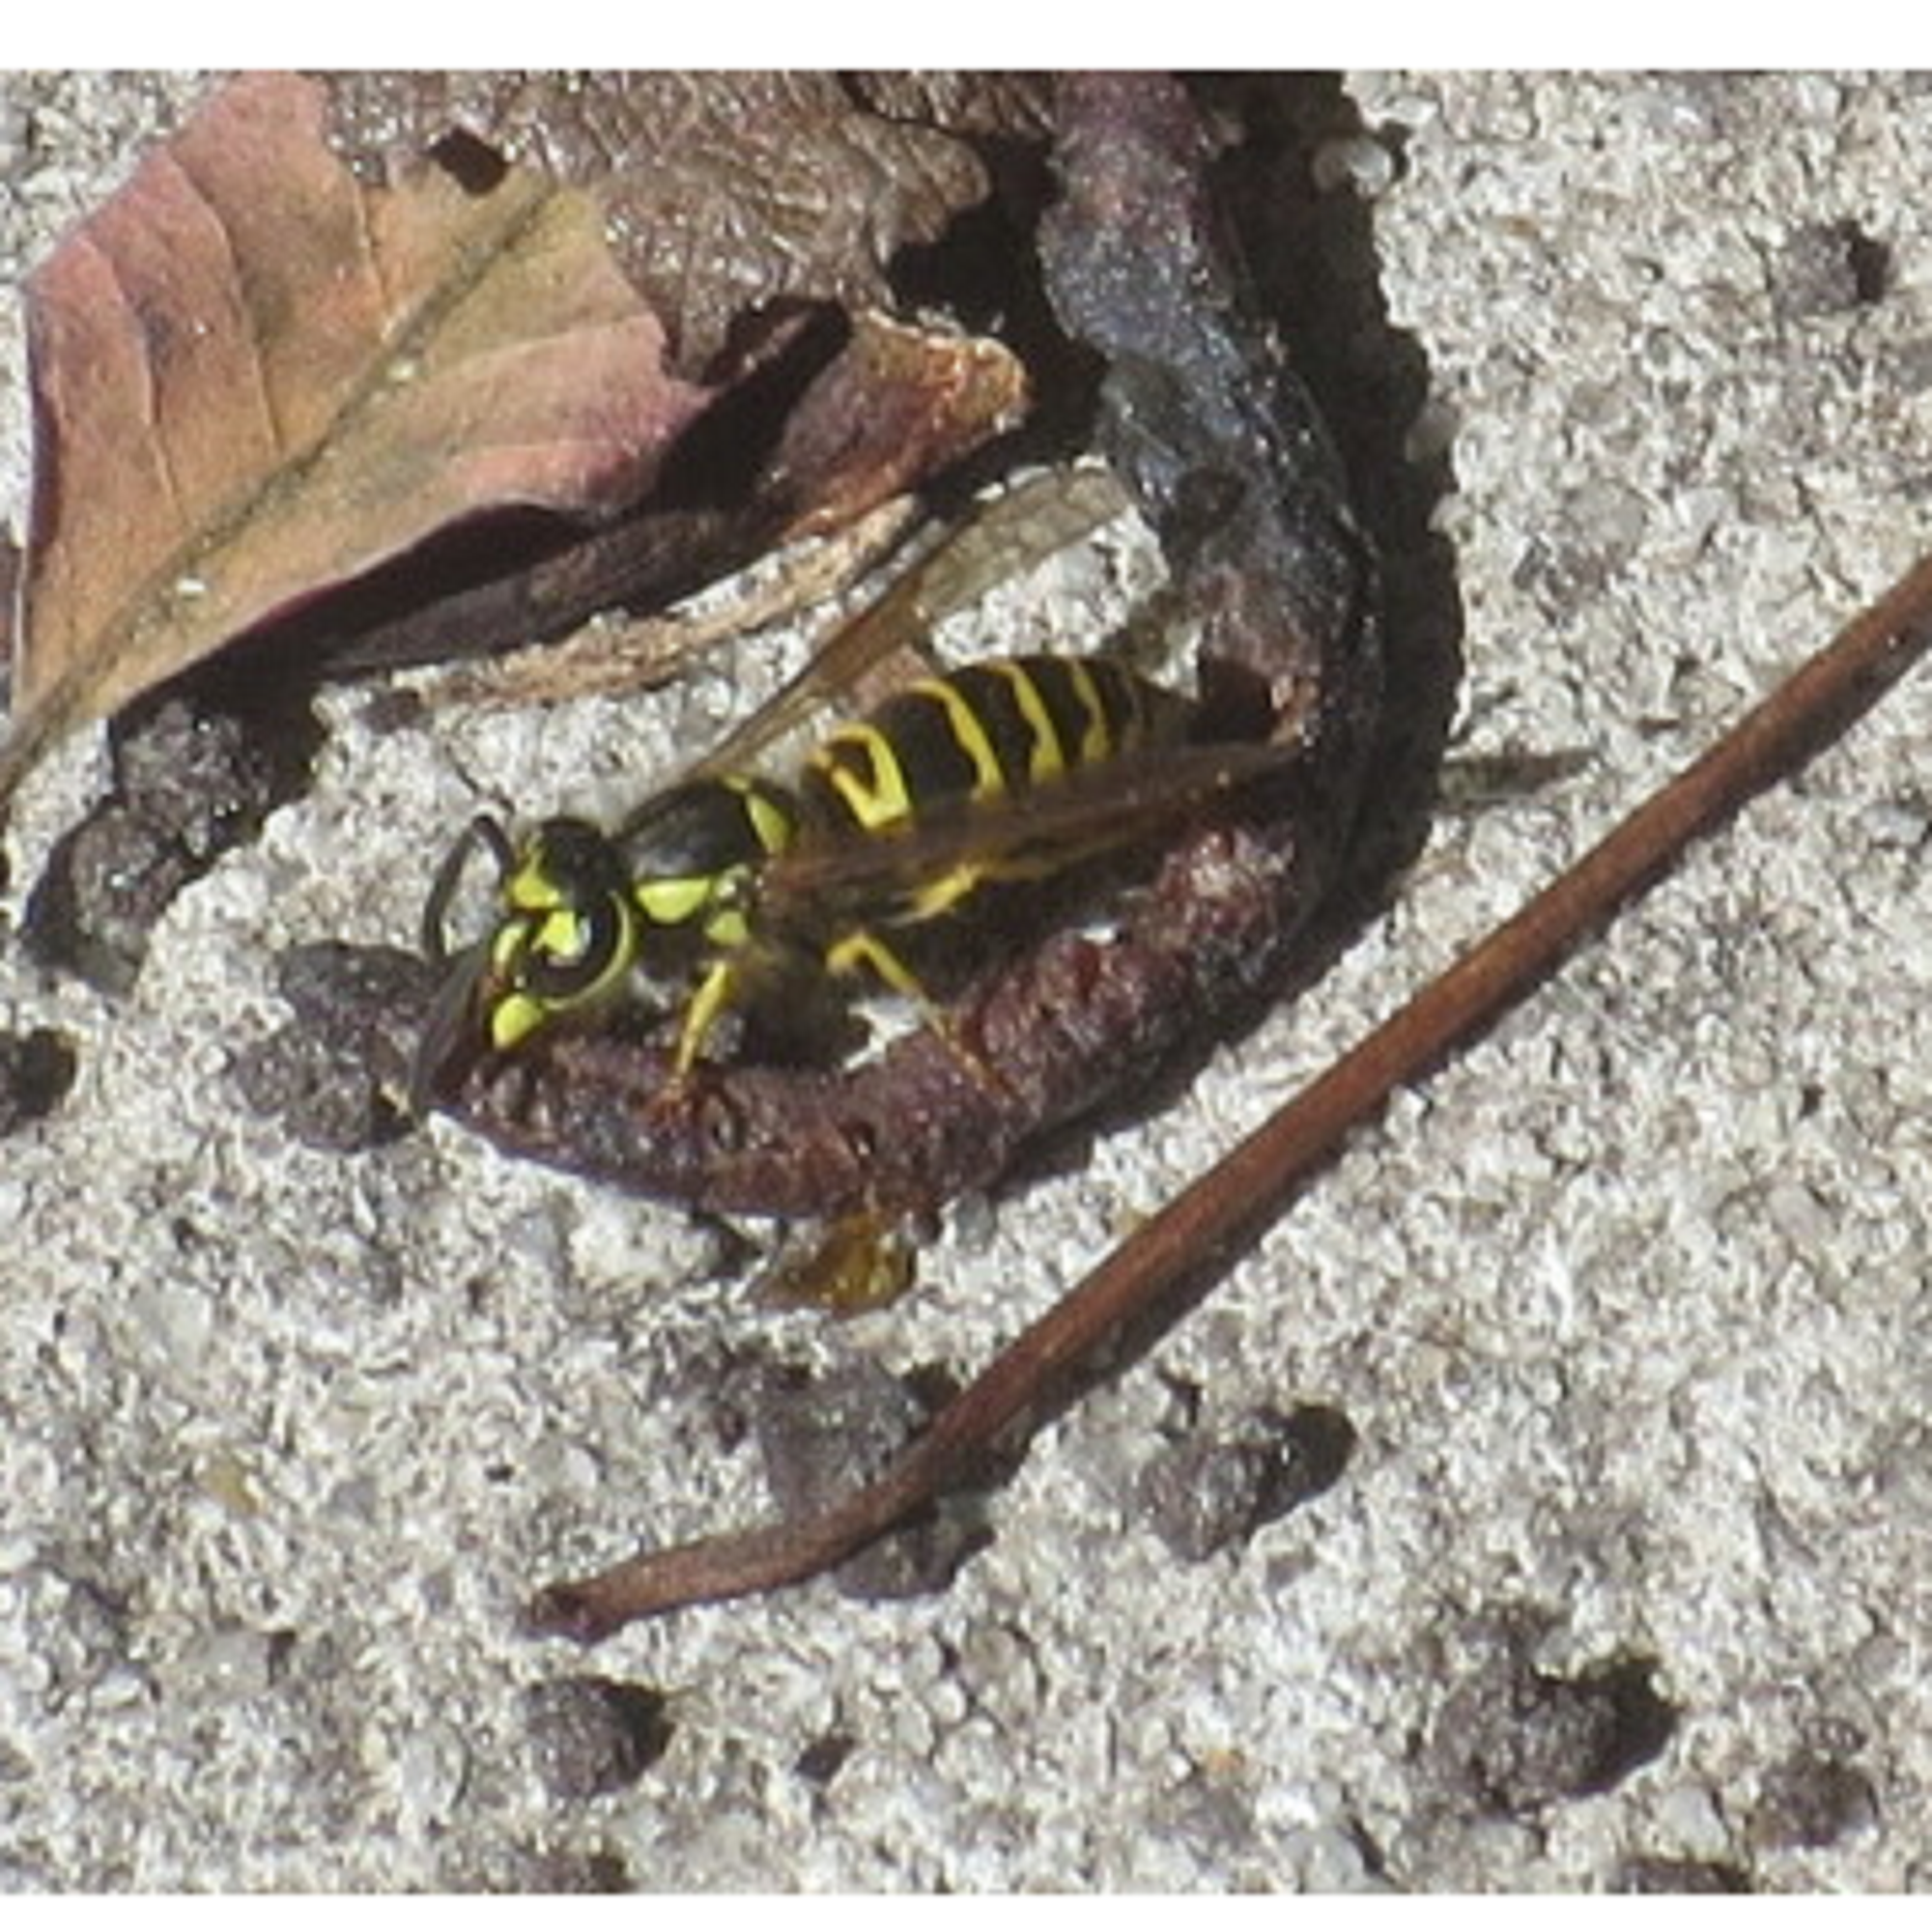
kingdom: Animalia
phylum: Arthropoda
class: Insecta
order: Hymenoptera
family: Vespidae
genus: Vespula
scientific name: Vespula maculifrons
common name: Eastern yellowjacket
